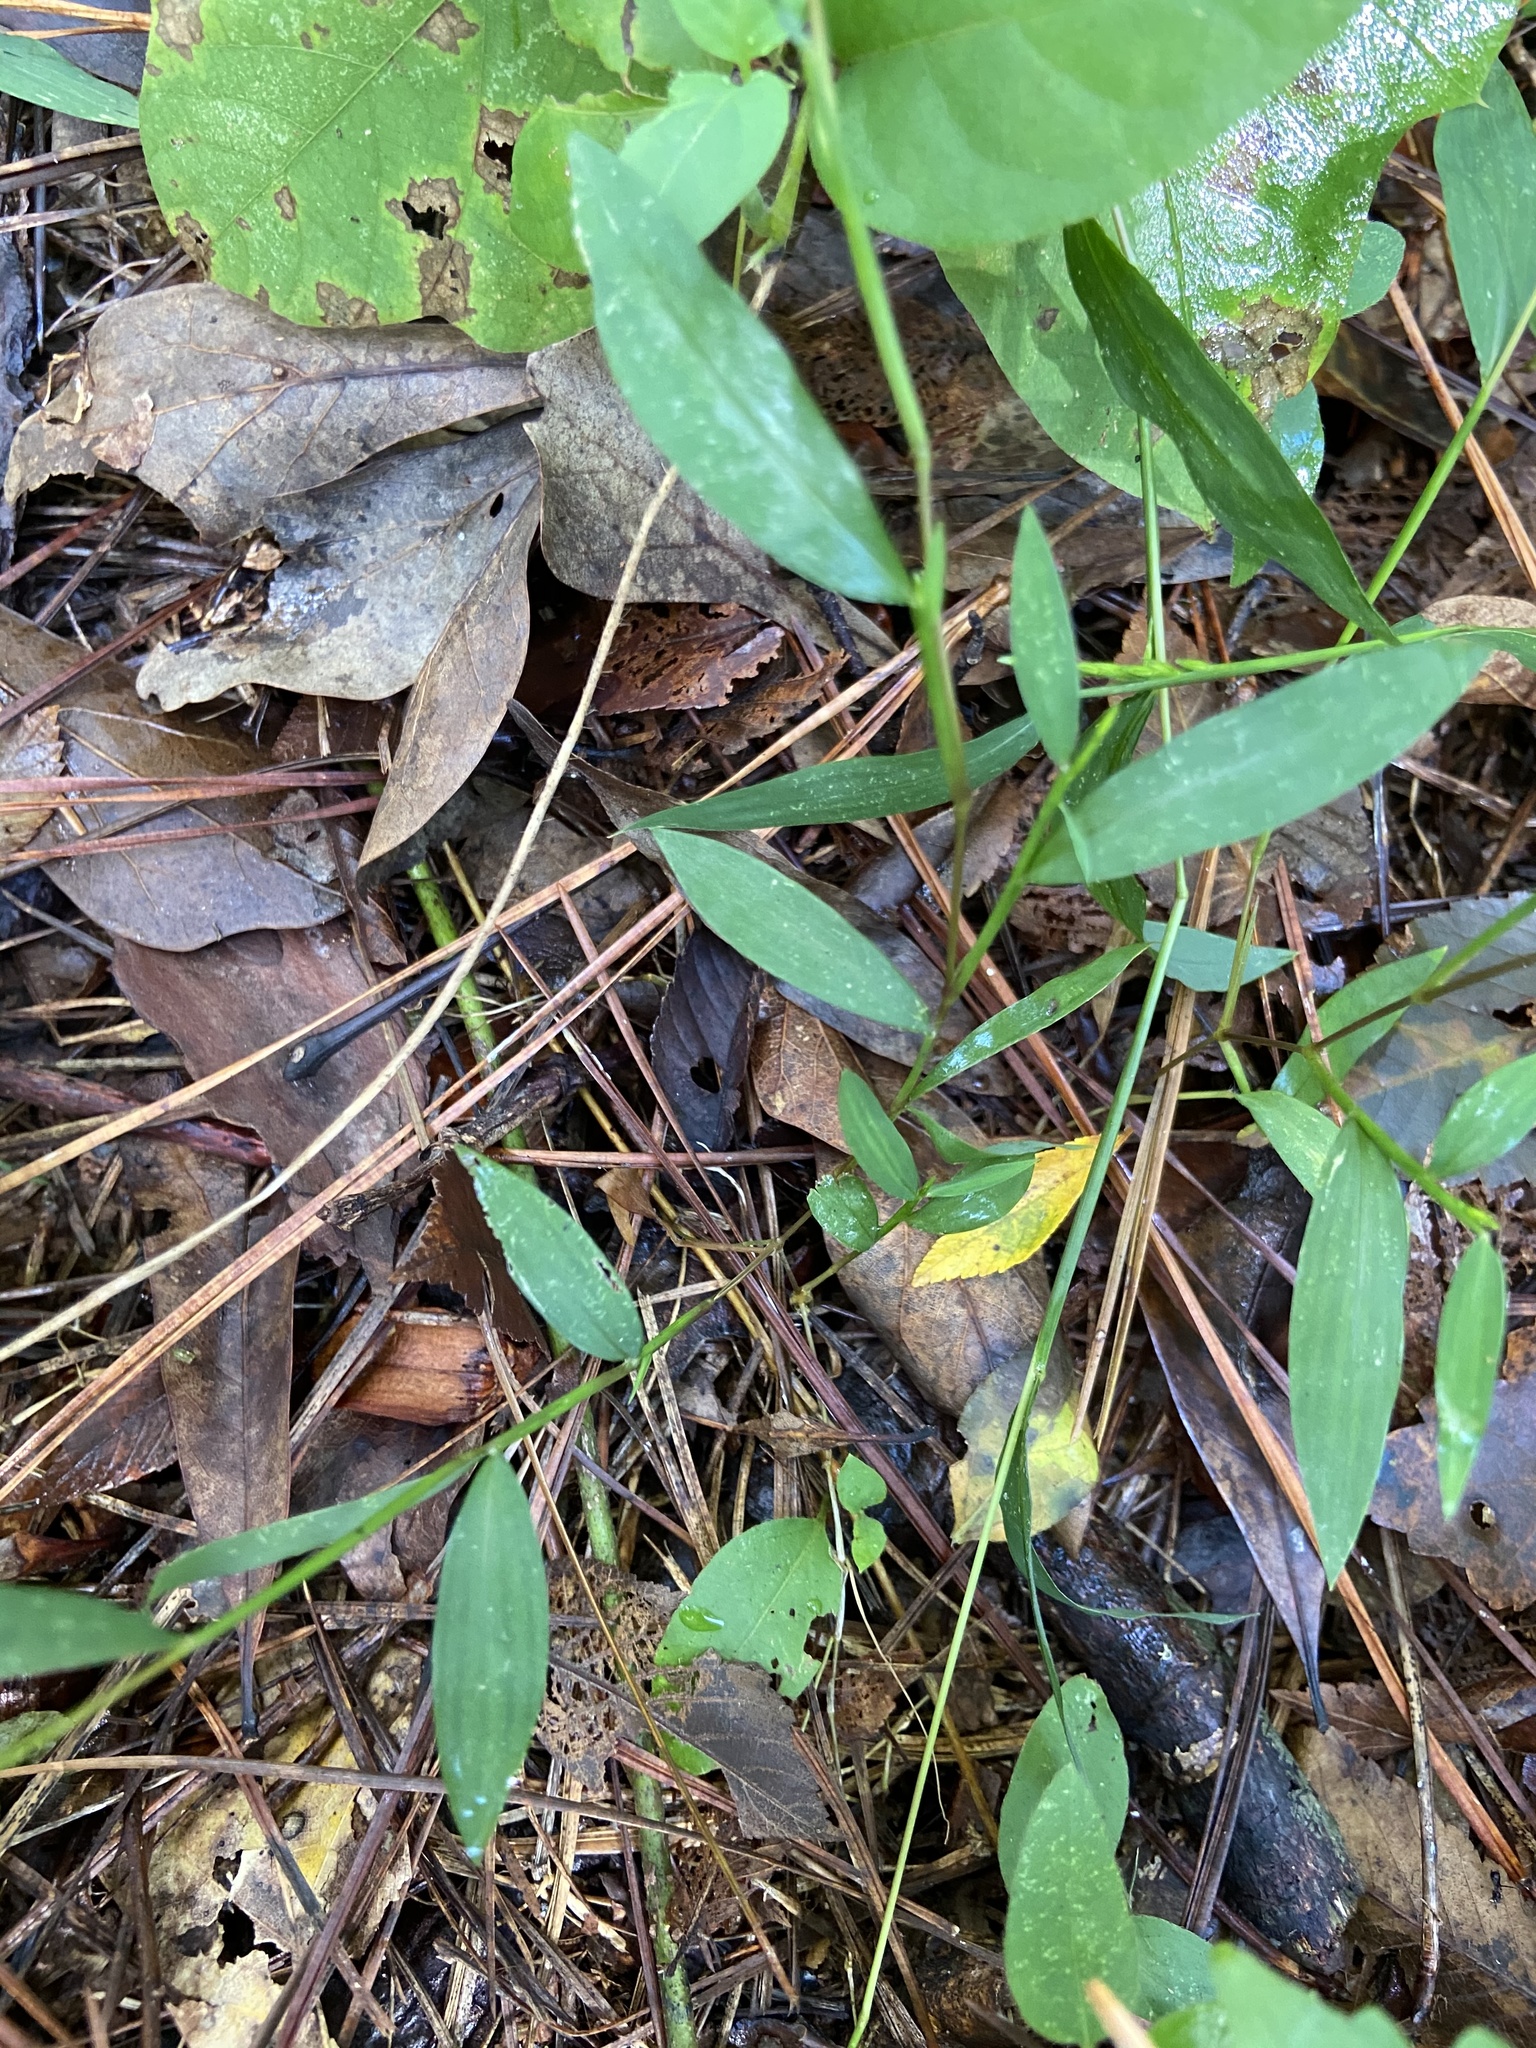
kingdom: Plantae
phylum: Tracheophyta
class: Liliopsida
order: Poales
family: Poaceae
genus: Microstegium
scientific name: Microstegium vimineum
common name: Japanese stiltgrass
